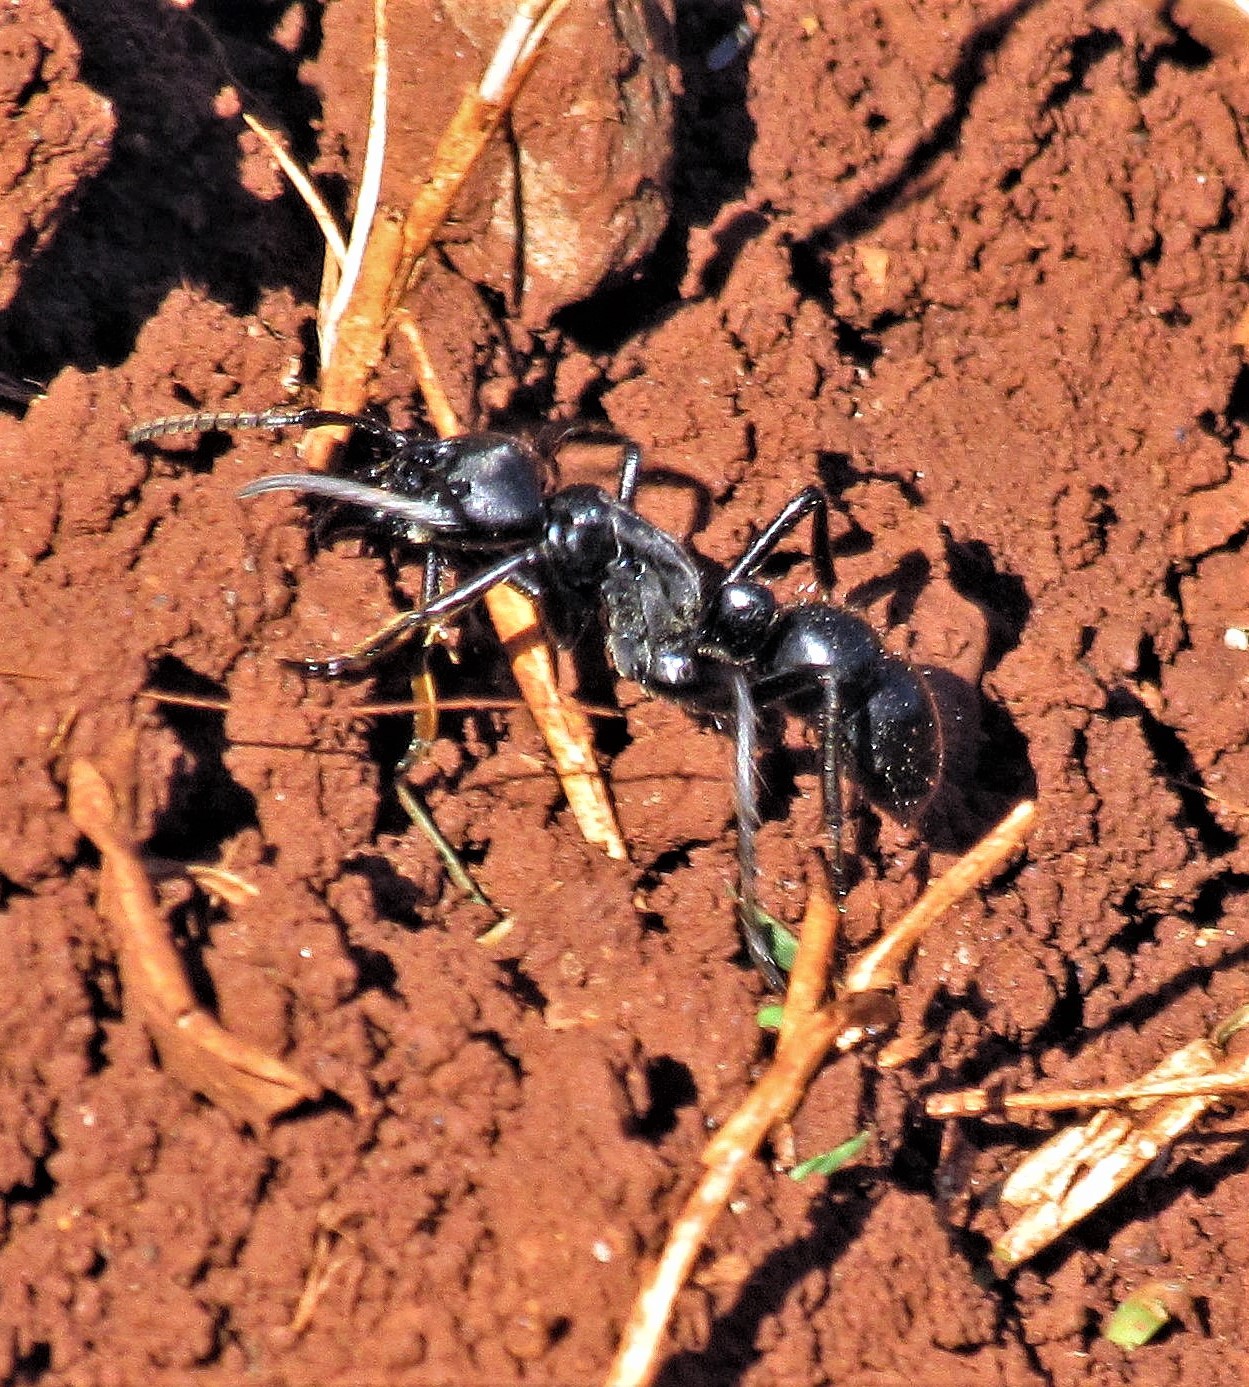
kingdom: Animalia
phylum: Arthropoda
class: Insecta
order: Hymenoptera
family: Formicidae
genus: Dinoponera
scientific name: Dinoponera grandis
